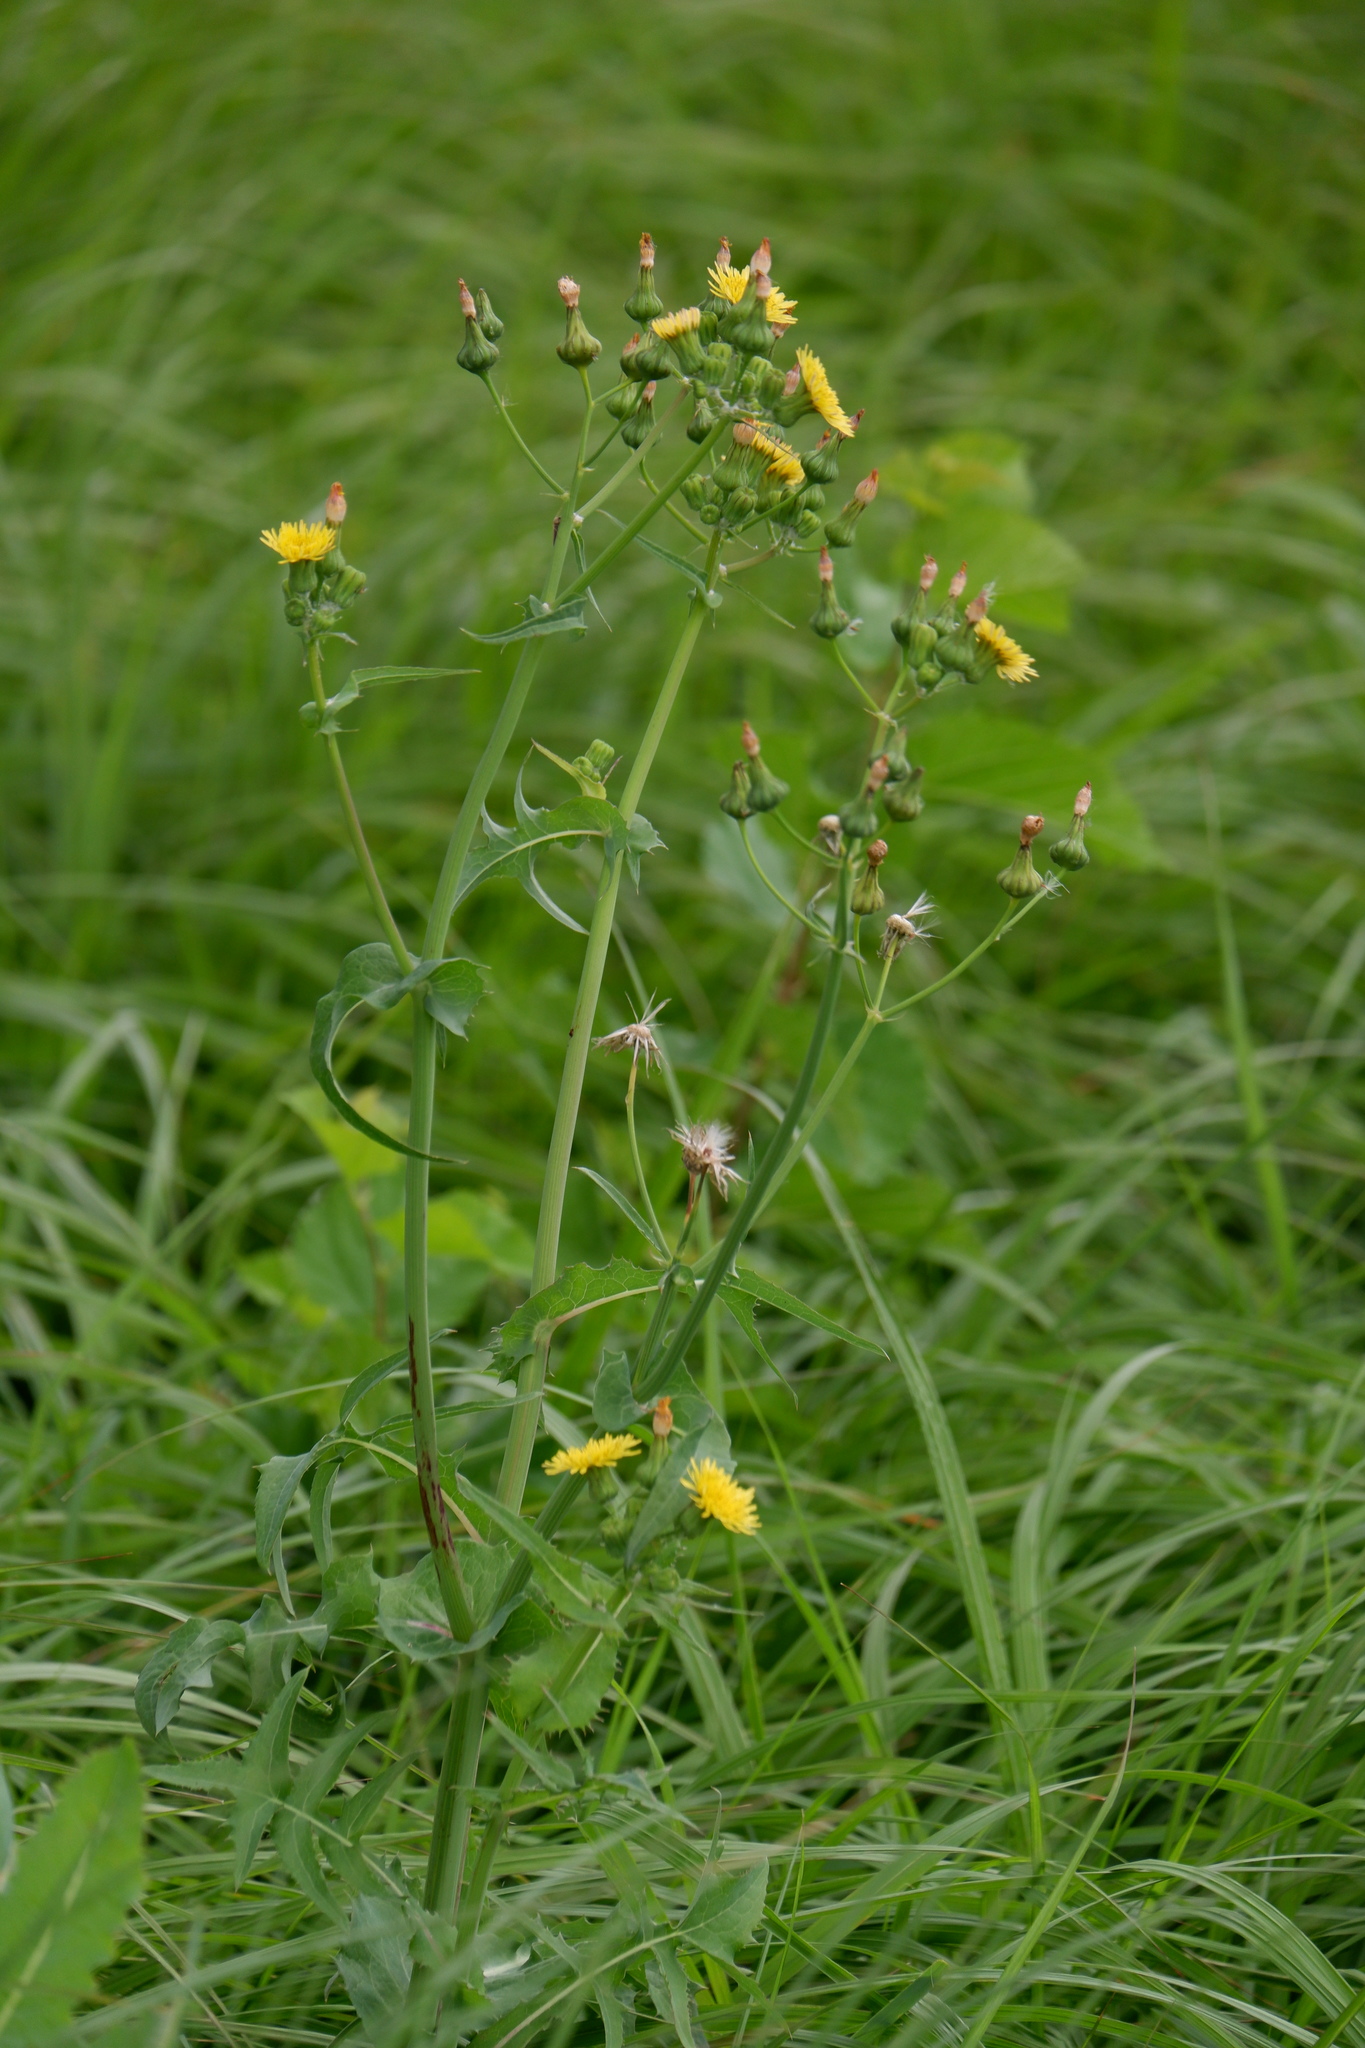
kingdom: Plantae
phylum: Tracheophyta
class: Magnoliopsida
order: Asterales
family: Asteraceae
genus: Sonchus
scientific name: Sonchus oleraceus
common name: Common sowthistle
